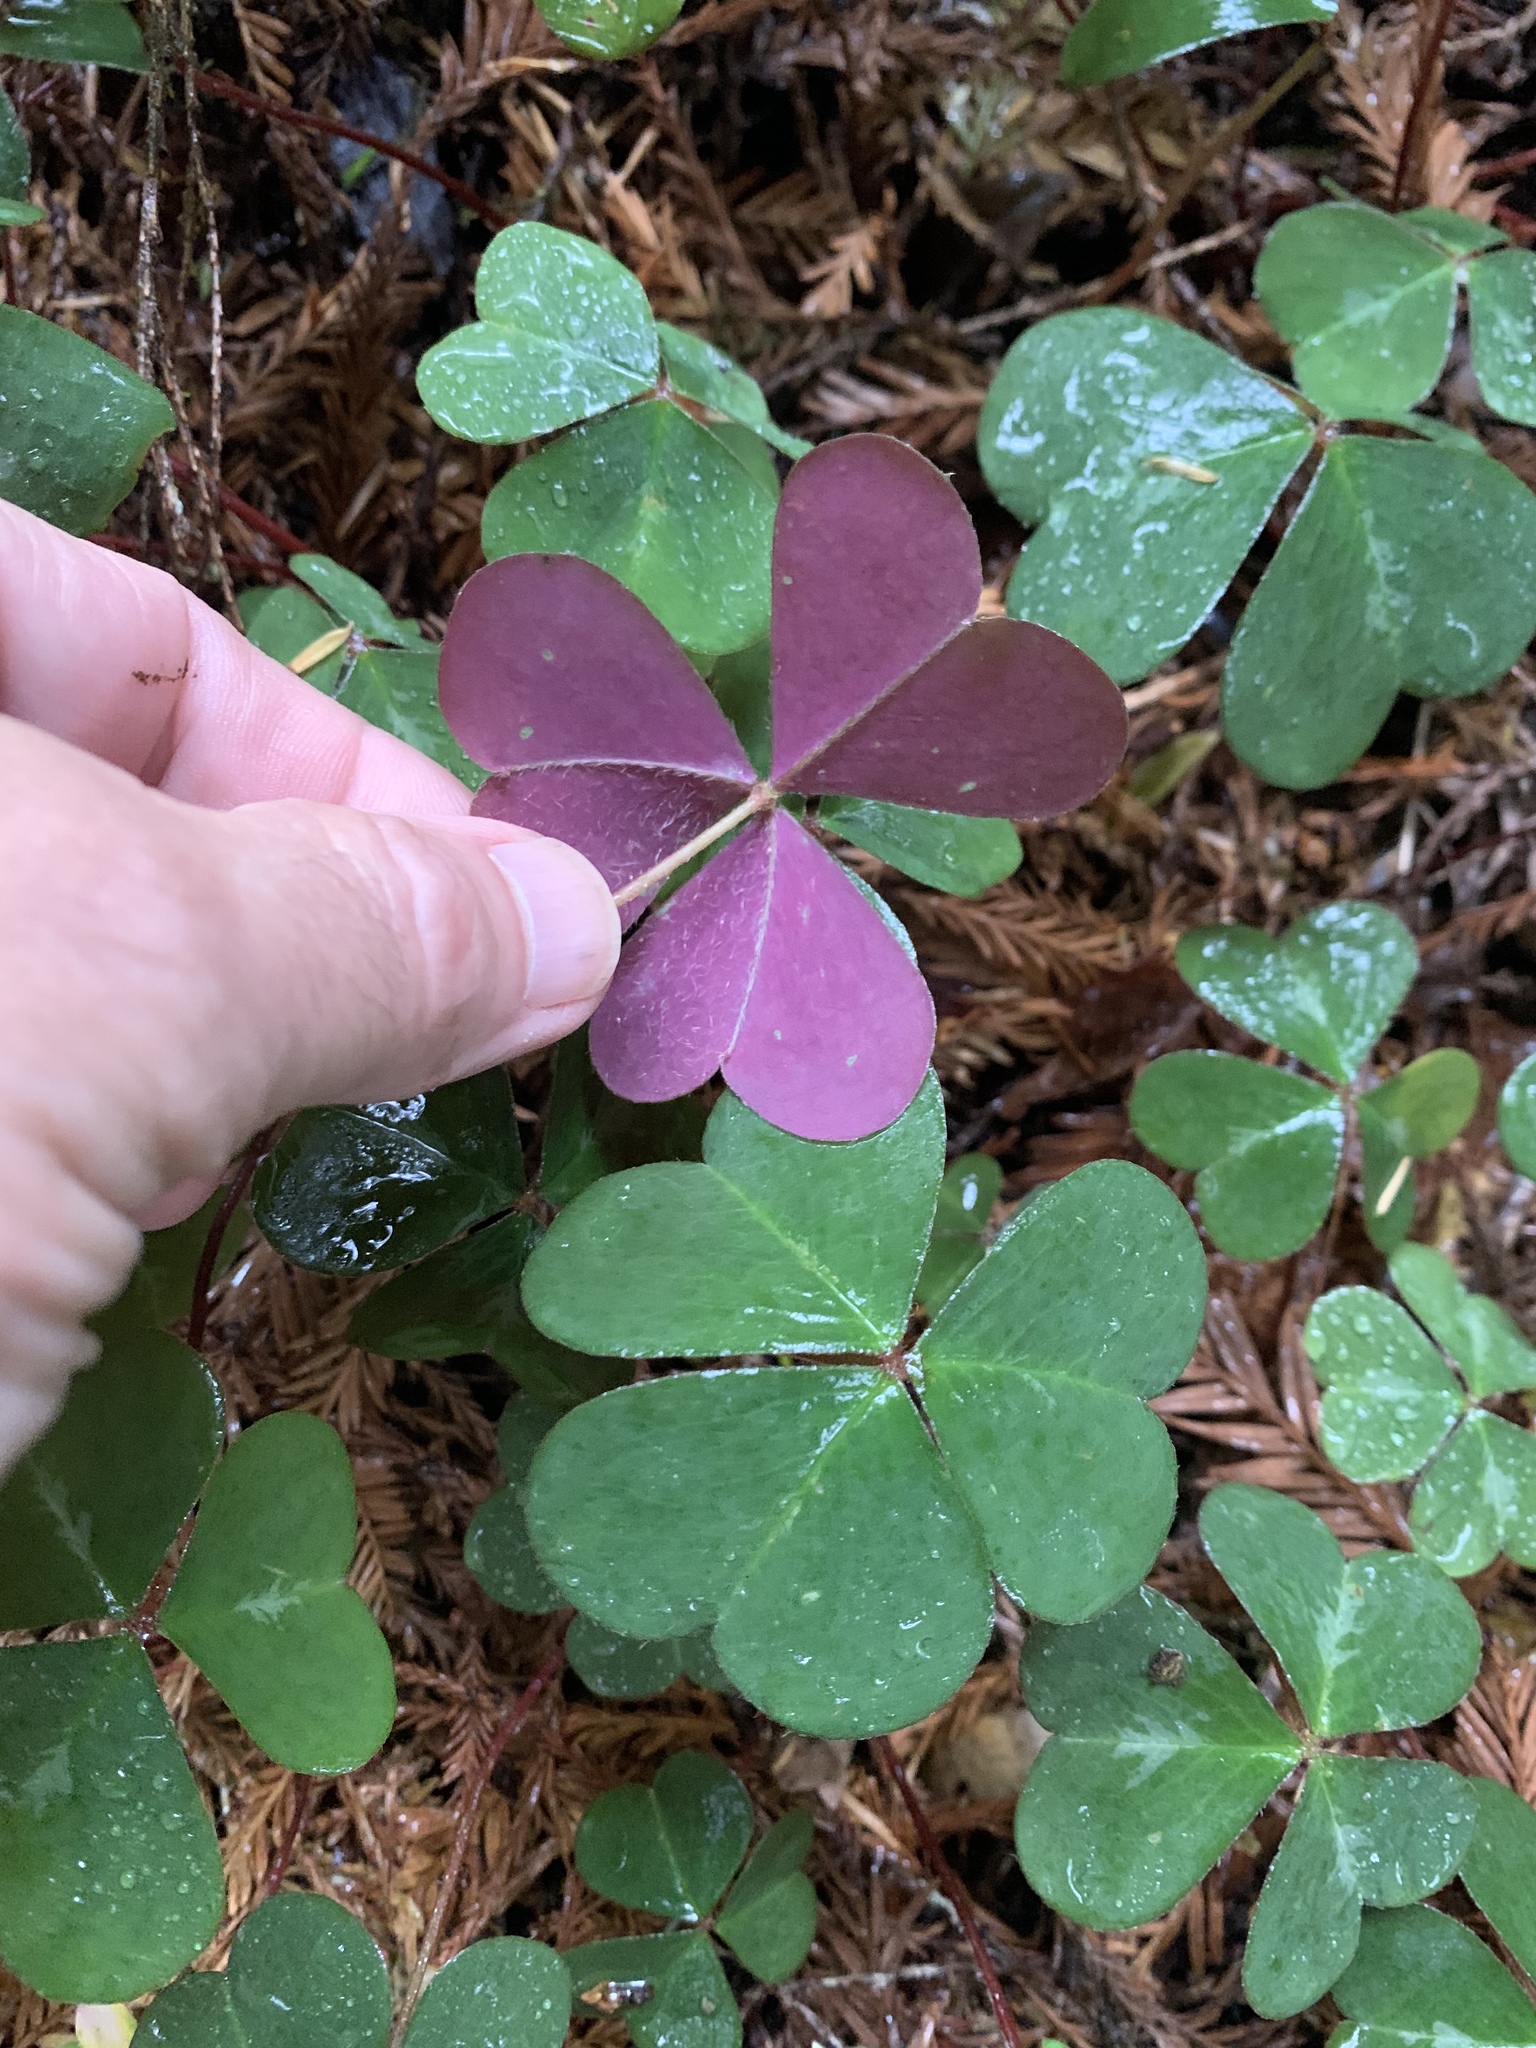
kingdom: Plantae
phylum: Tracheophyta
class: Magnoliopsida
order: Oxalidales
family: Oxalidaceae
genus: Oxalis
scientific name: Oxalis oregana
